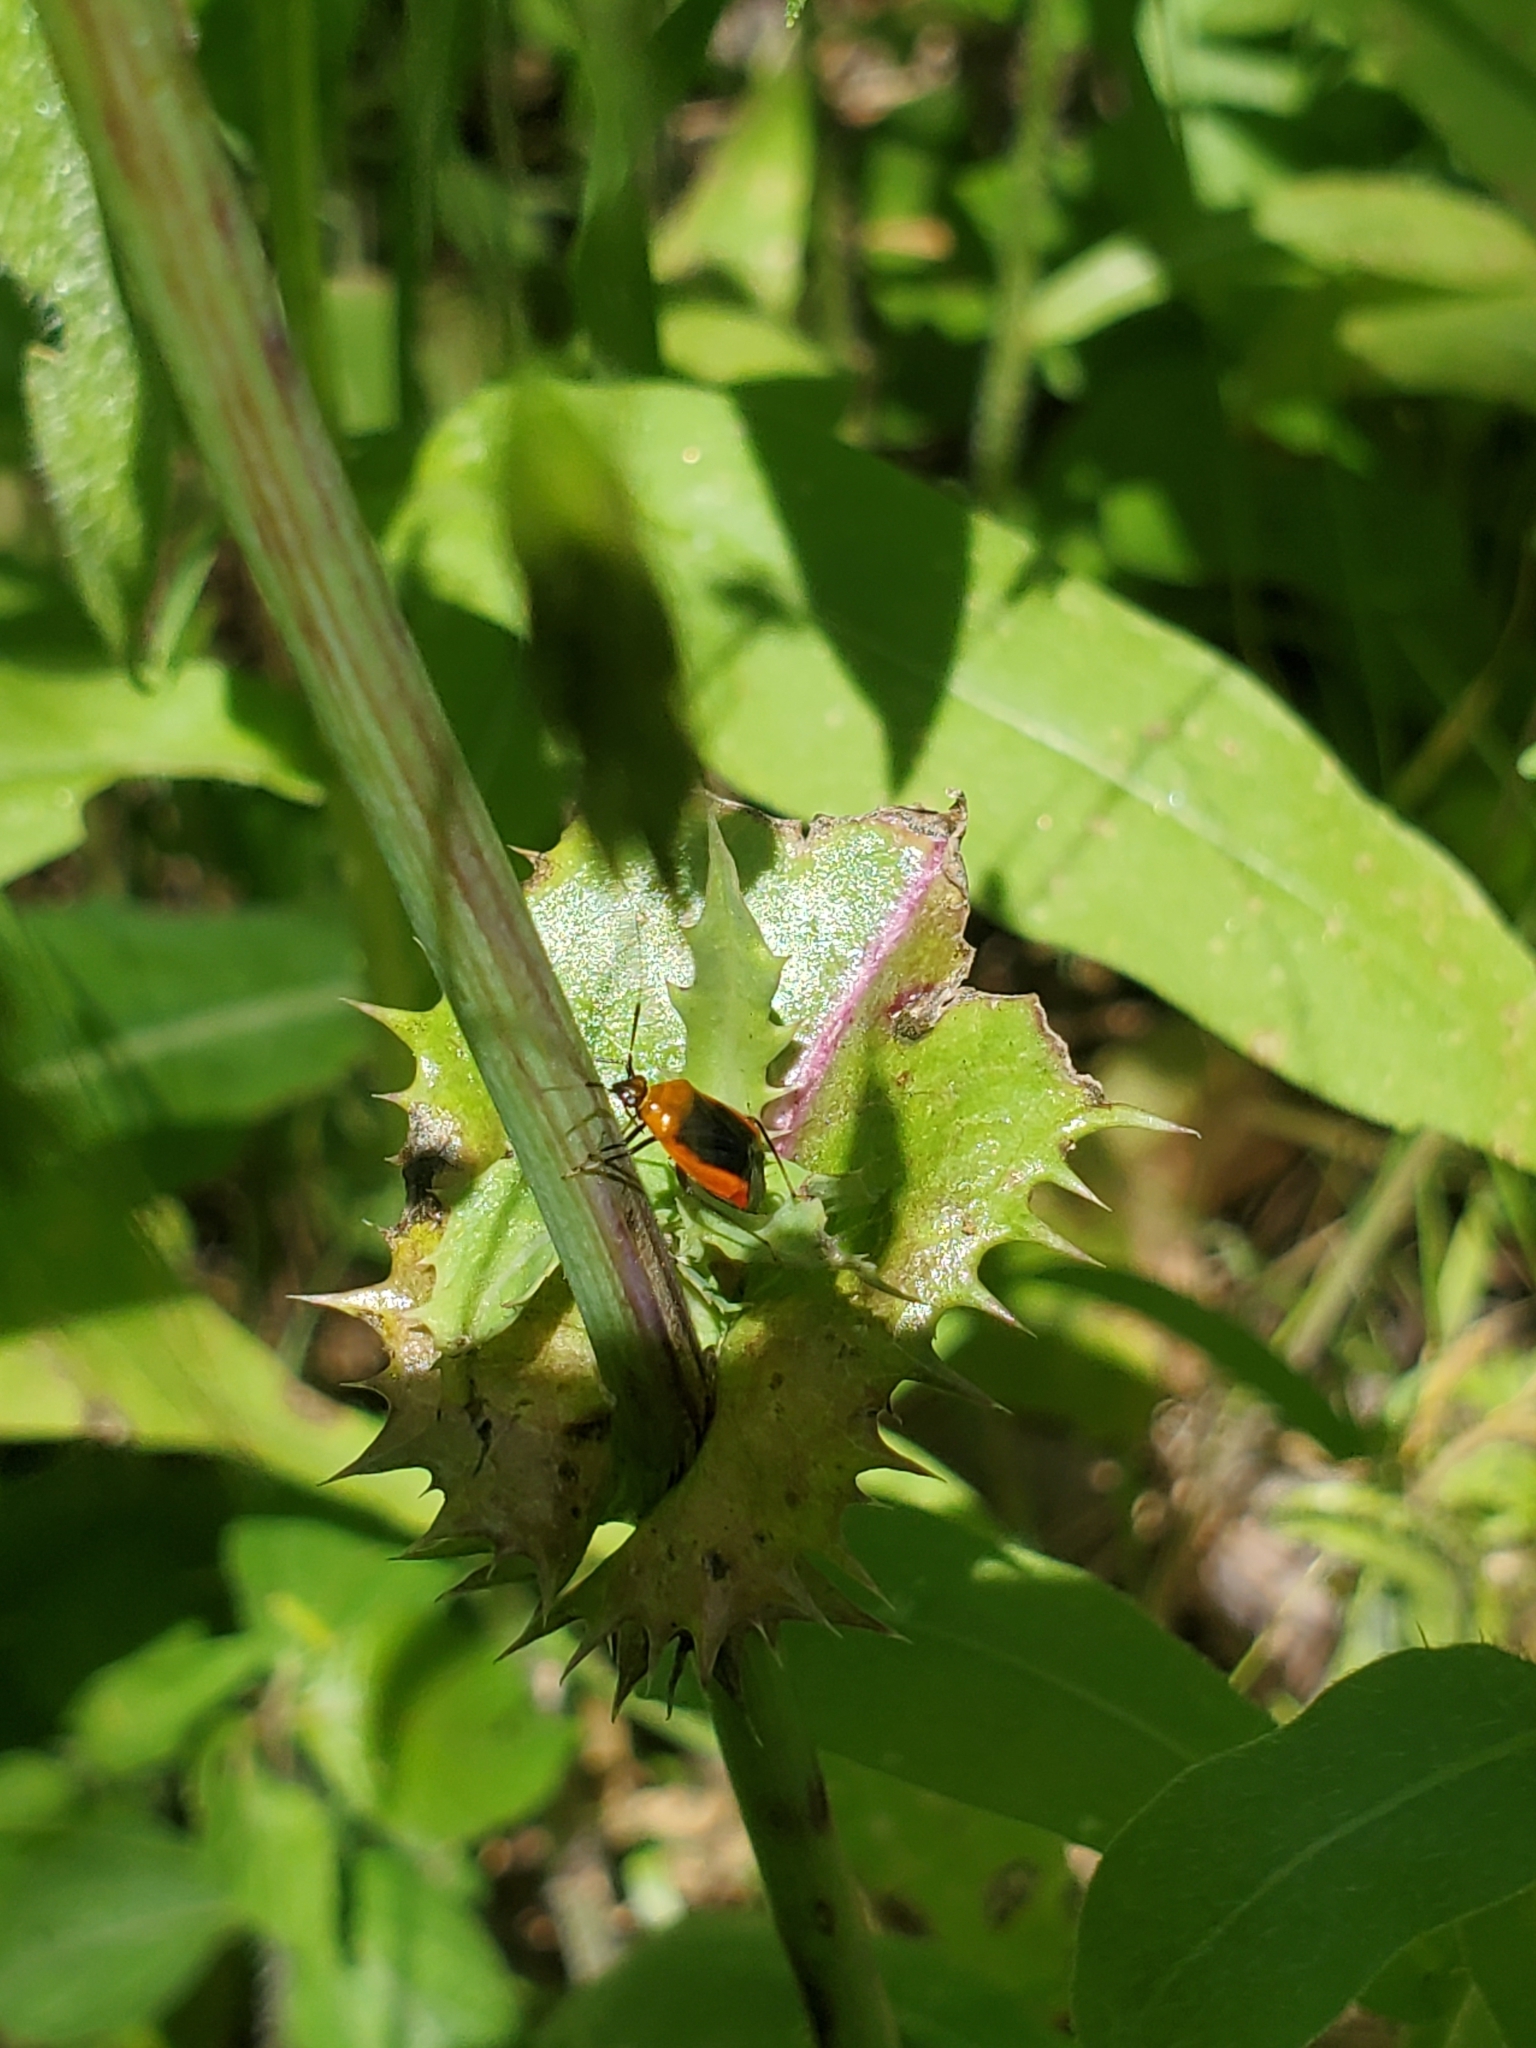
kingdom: Animalia
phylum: Arthropoda
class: Insecta
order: Hemiptera
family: Miridae
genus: Metriorrhynchomiris
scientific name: Metriorrhynchomiris dislocatus
